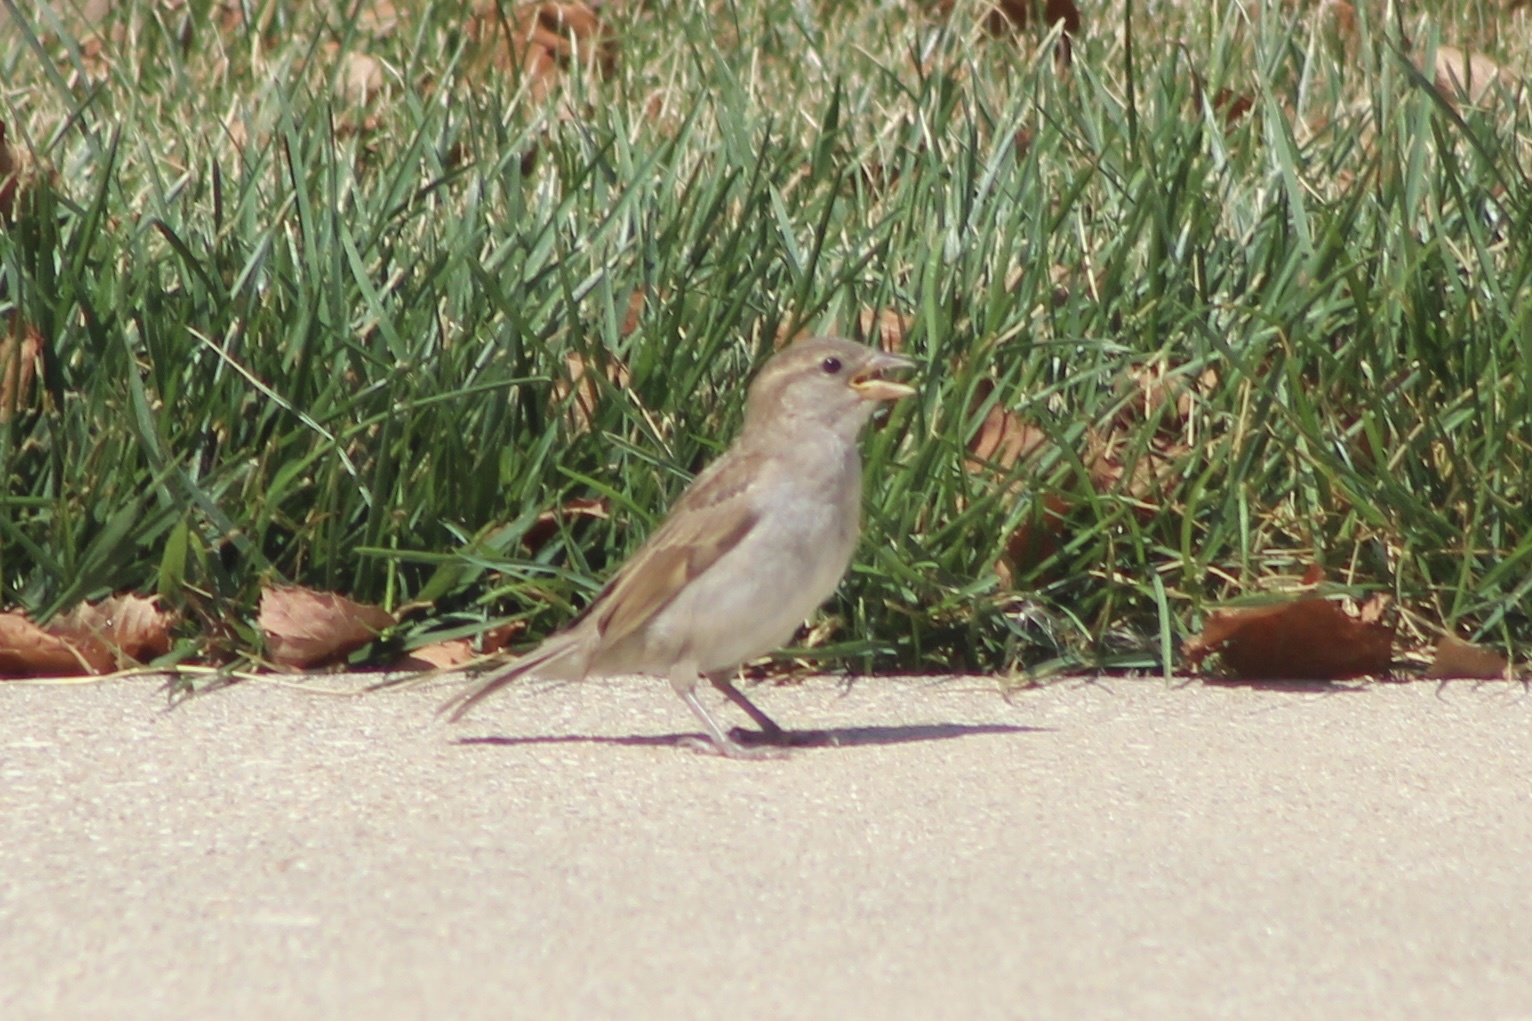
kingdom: Animalia
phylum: Chordata
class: Aves
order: Passeriformes
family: Passeridae
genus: Passer
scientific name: Passer domesticus
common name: House sparrow
